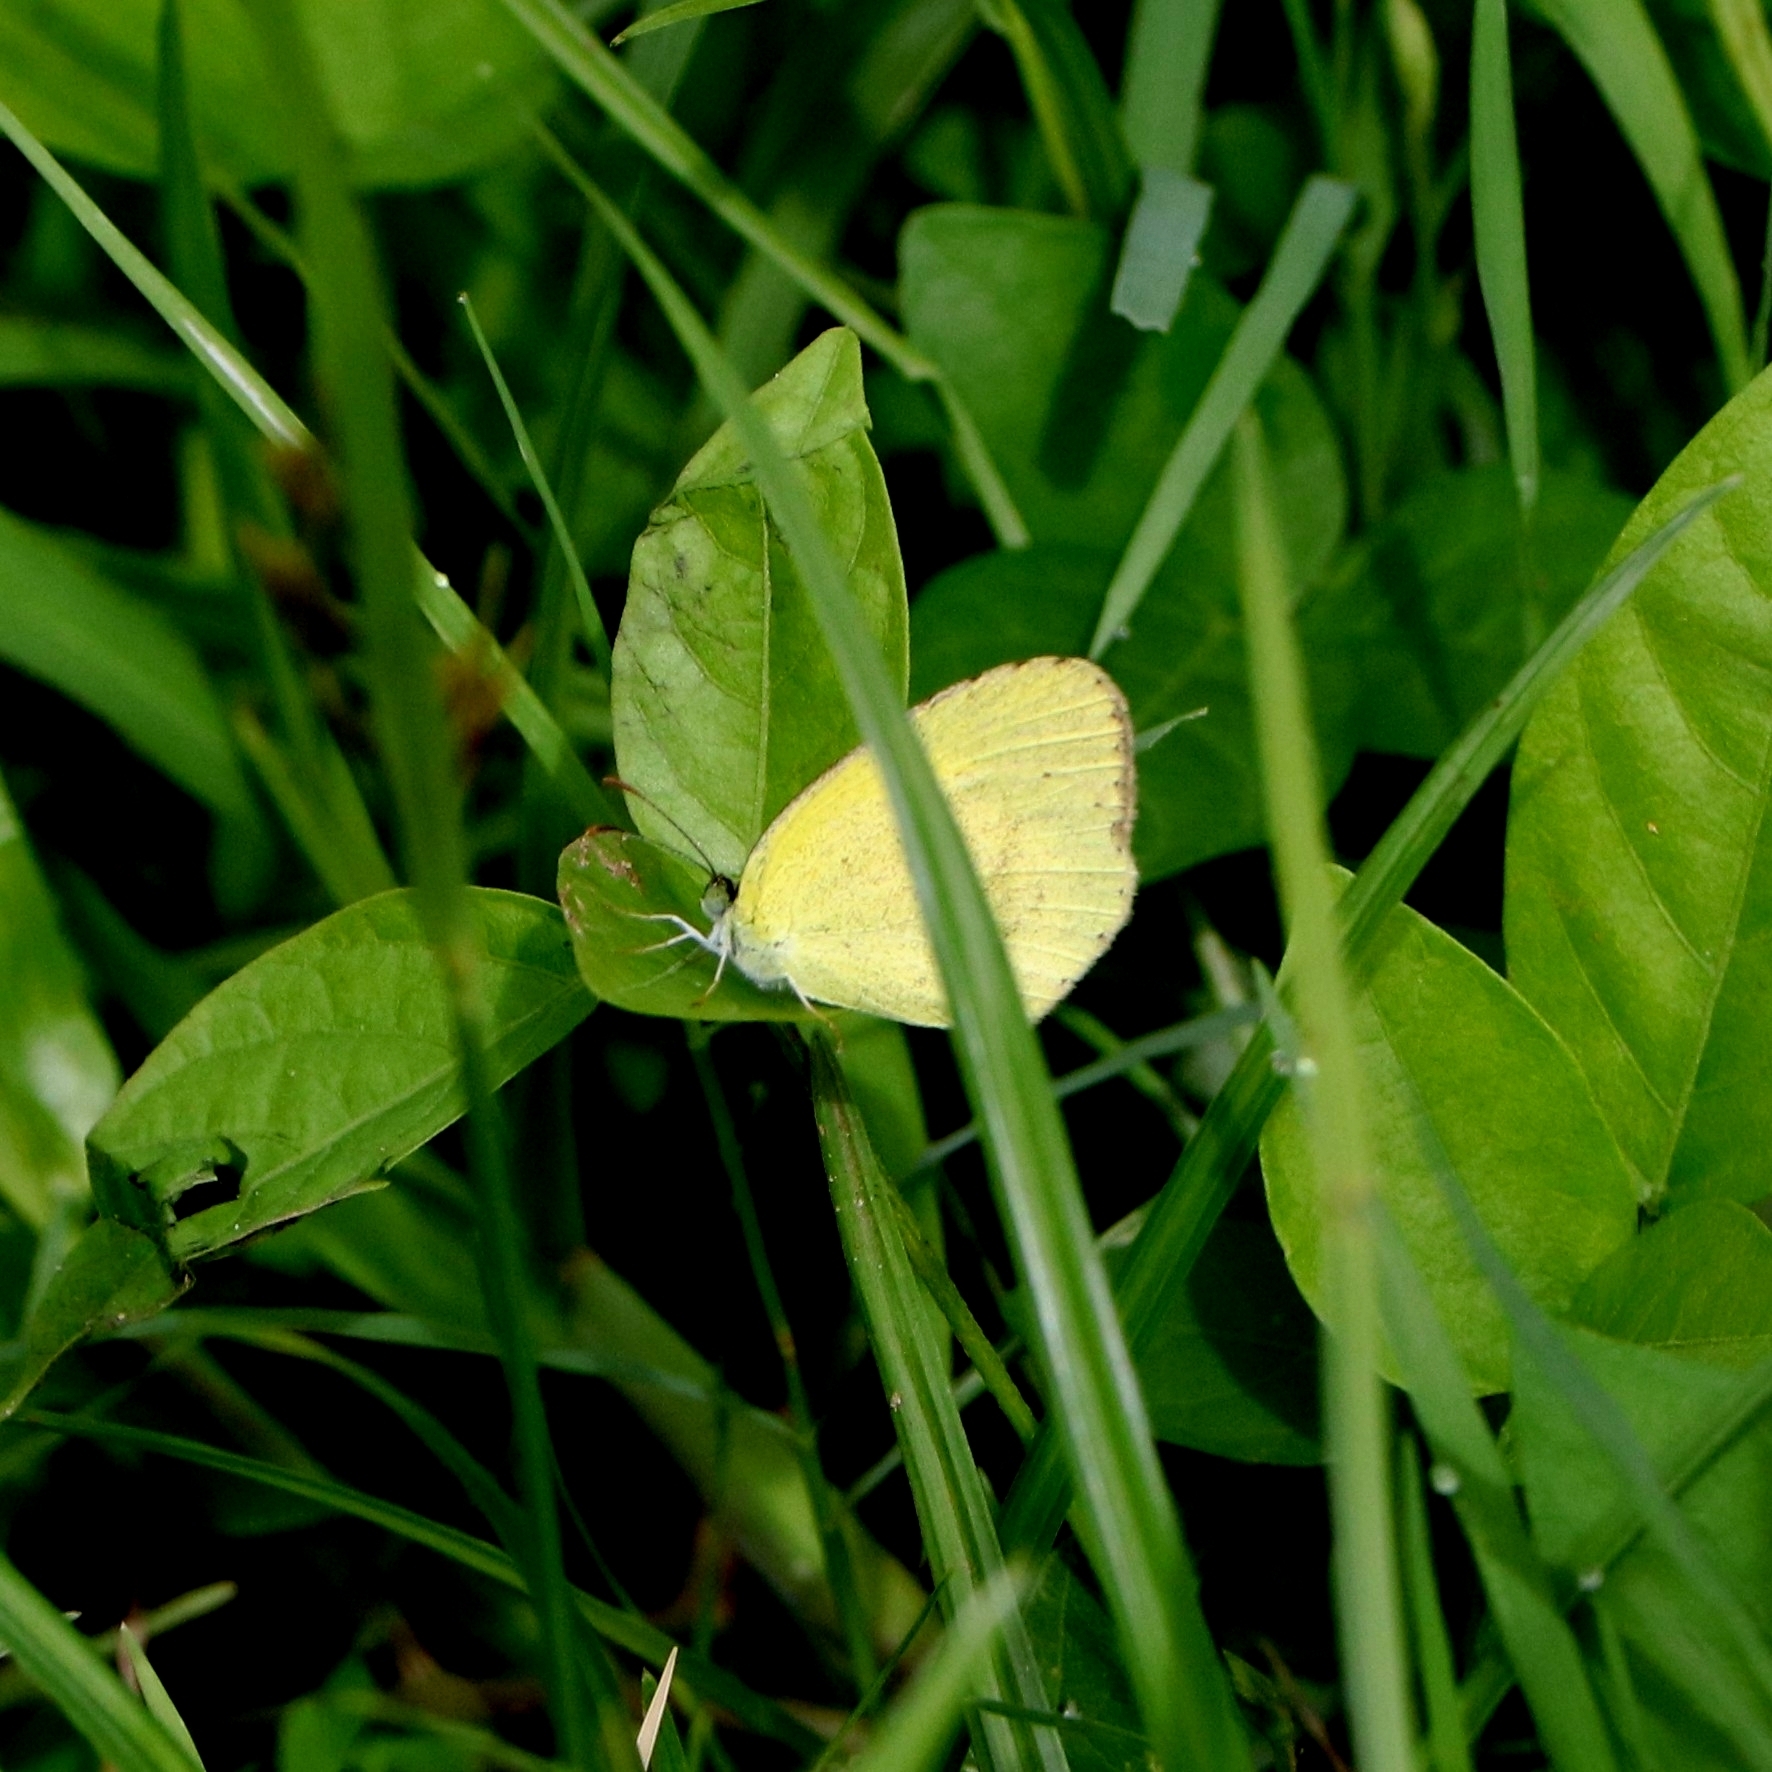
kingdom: Animalia
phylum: Arthropoda
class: Insecta
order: Lepidoptera
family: Pieridae
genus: Eurema
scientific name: Eurema brigitta
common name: Small grass yellow
